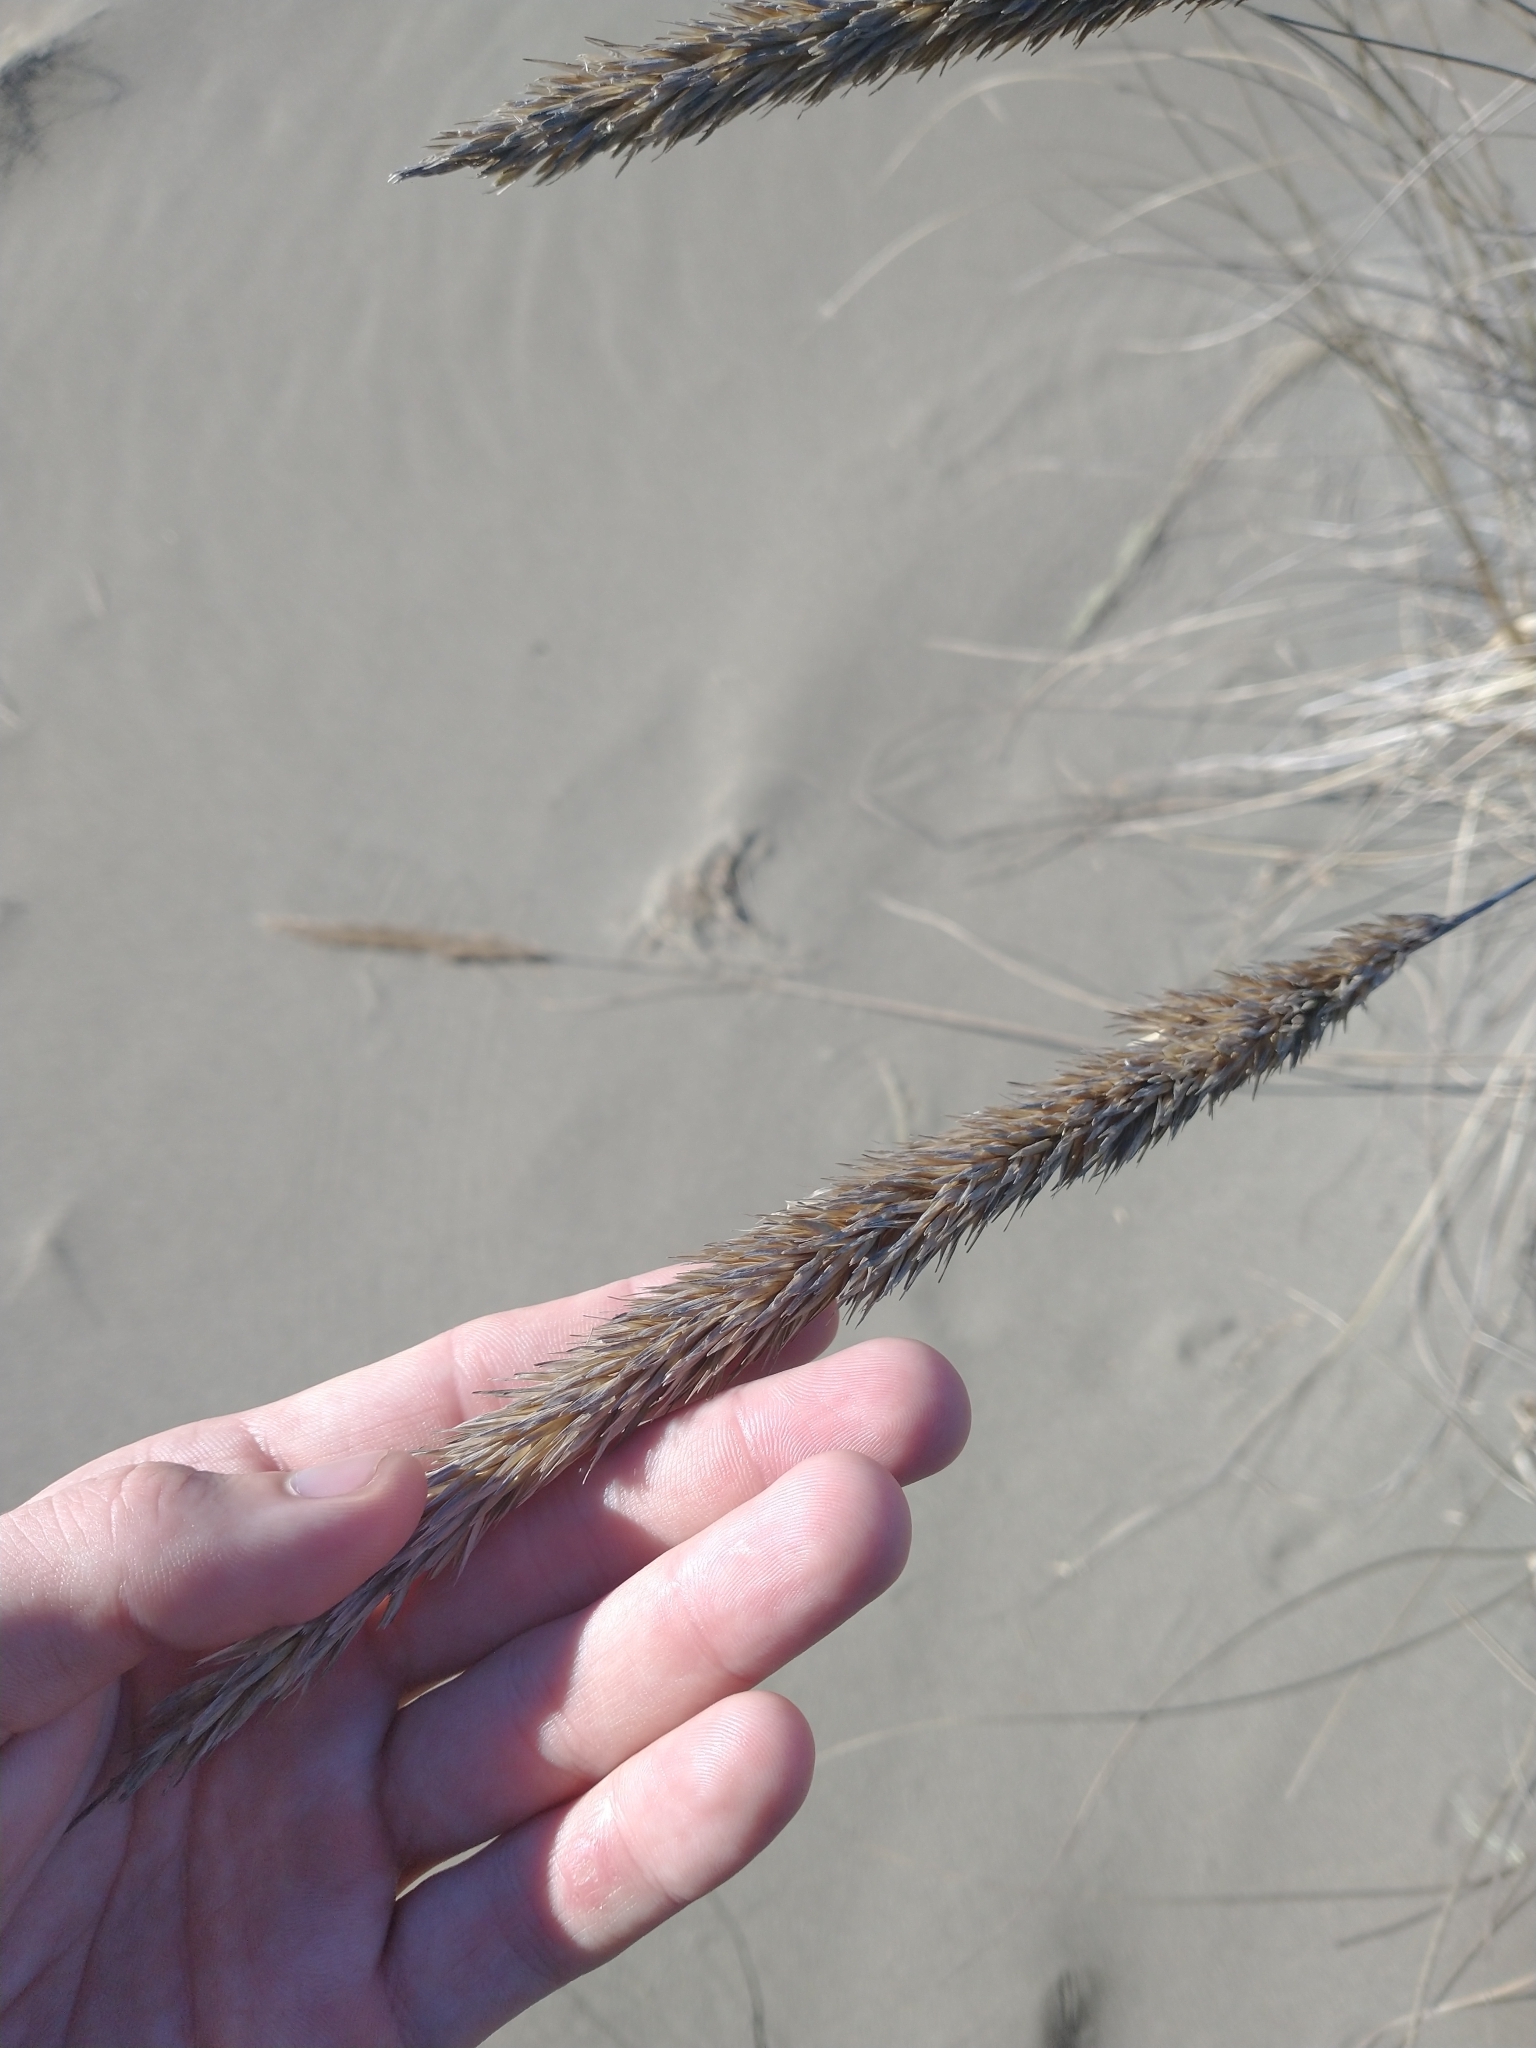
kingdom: Plantae
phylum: Tracheophyta
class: Liliopsida
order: Poales
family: Poaceae
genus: Calamagrostis
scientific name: Calamagrostis arenaria
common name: European beachgrass
